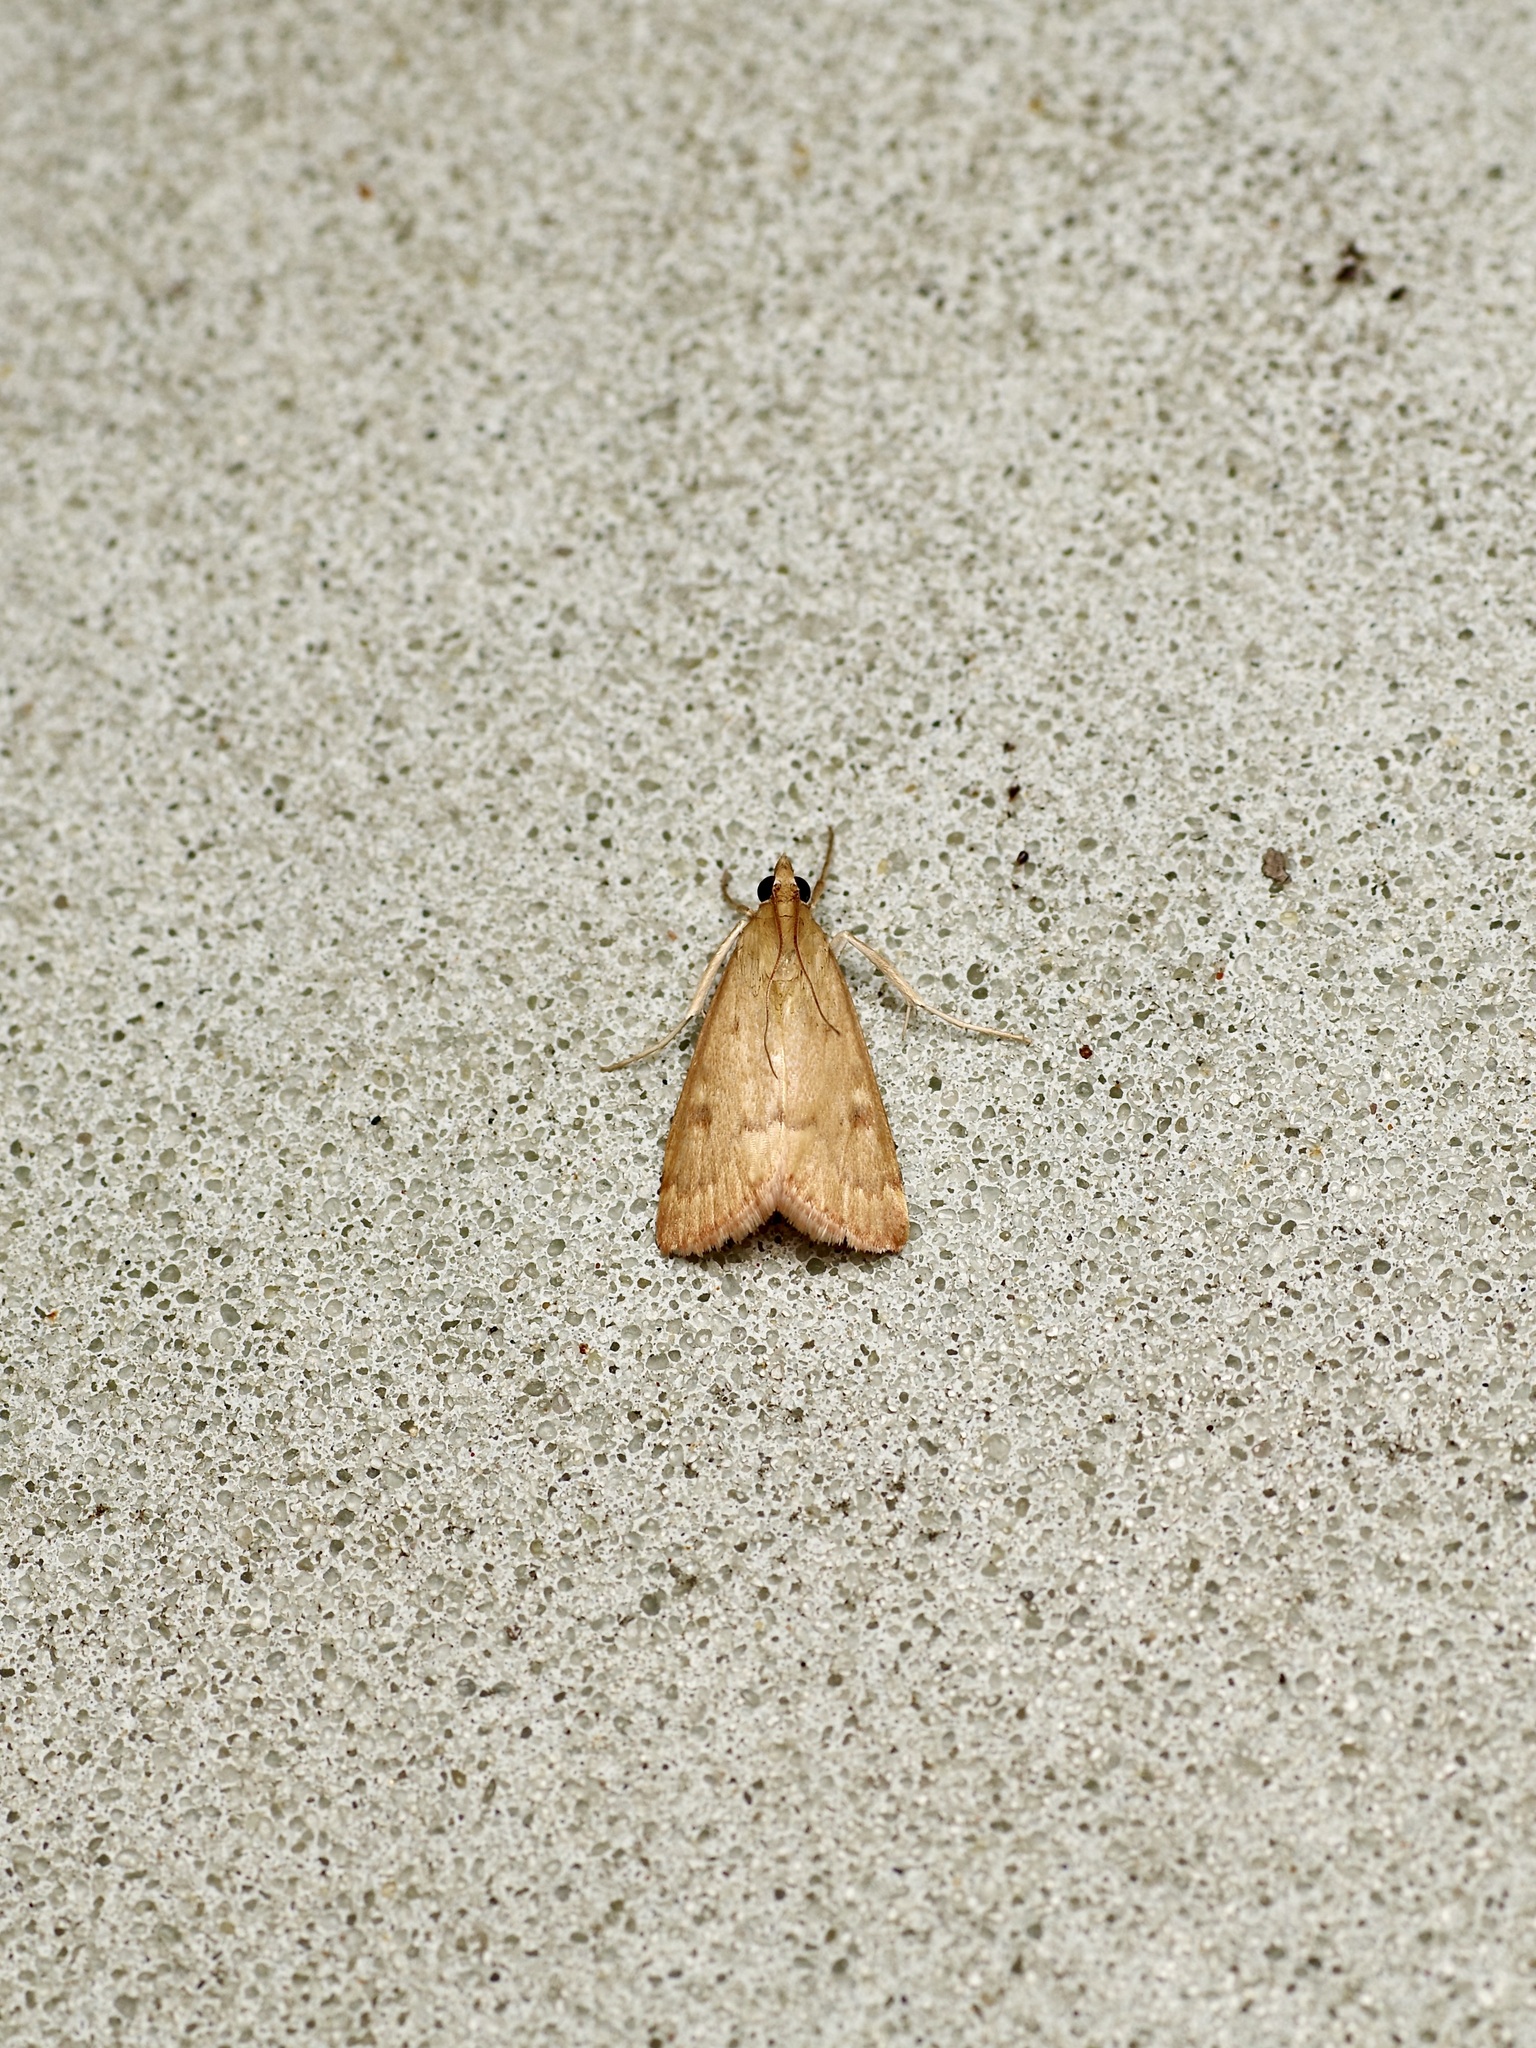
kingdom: Animalia
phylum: Arthropoda
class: Insecta
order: Lepidoptera
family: Crambidae
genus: Achyra
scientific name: Achyra rantalis
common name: Garden webworm
